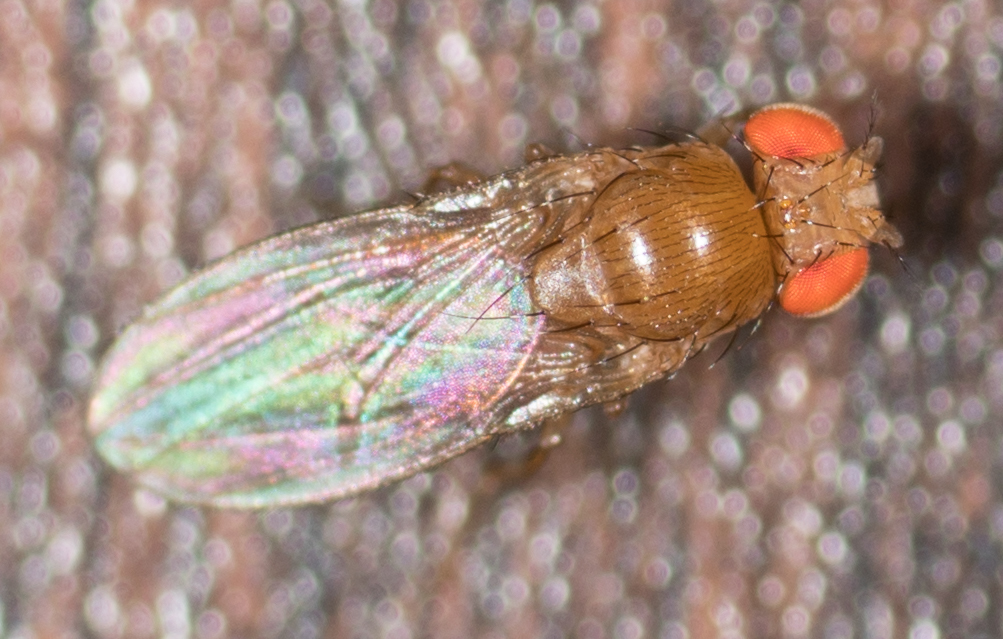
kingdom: Animalia
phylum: Arthropoda
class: Insecta
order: Diptera
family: Drosophilidae
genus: Drosophila
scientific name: Drosophila melanogaster
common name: Pomace fly
